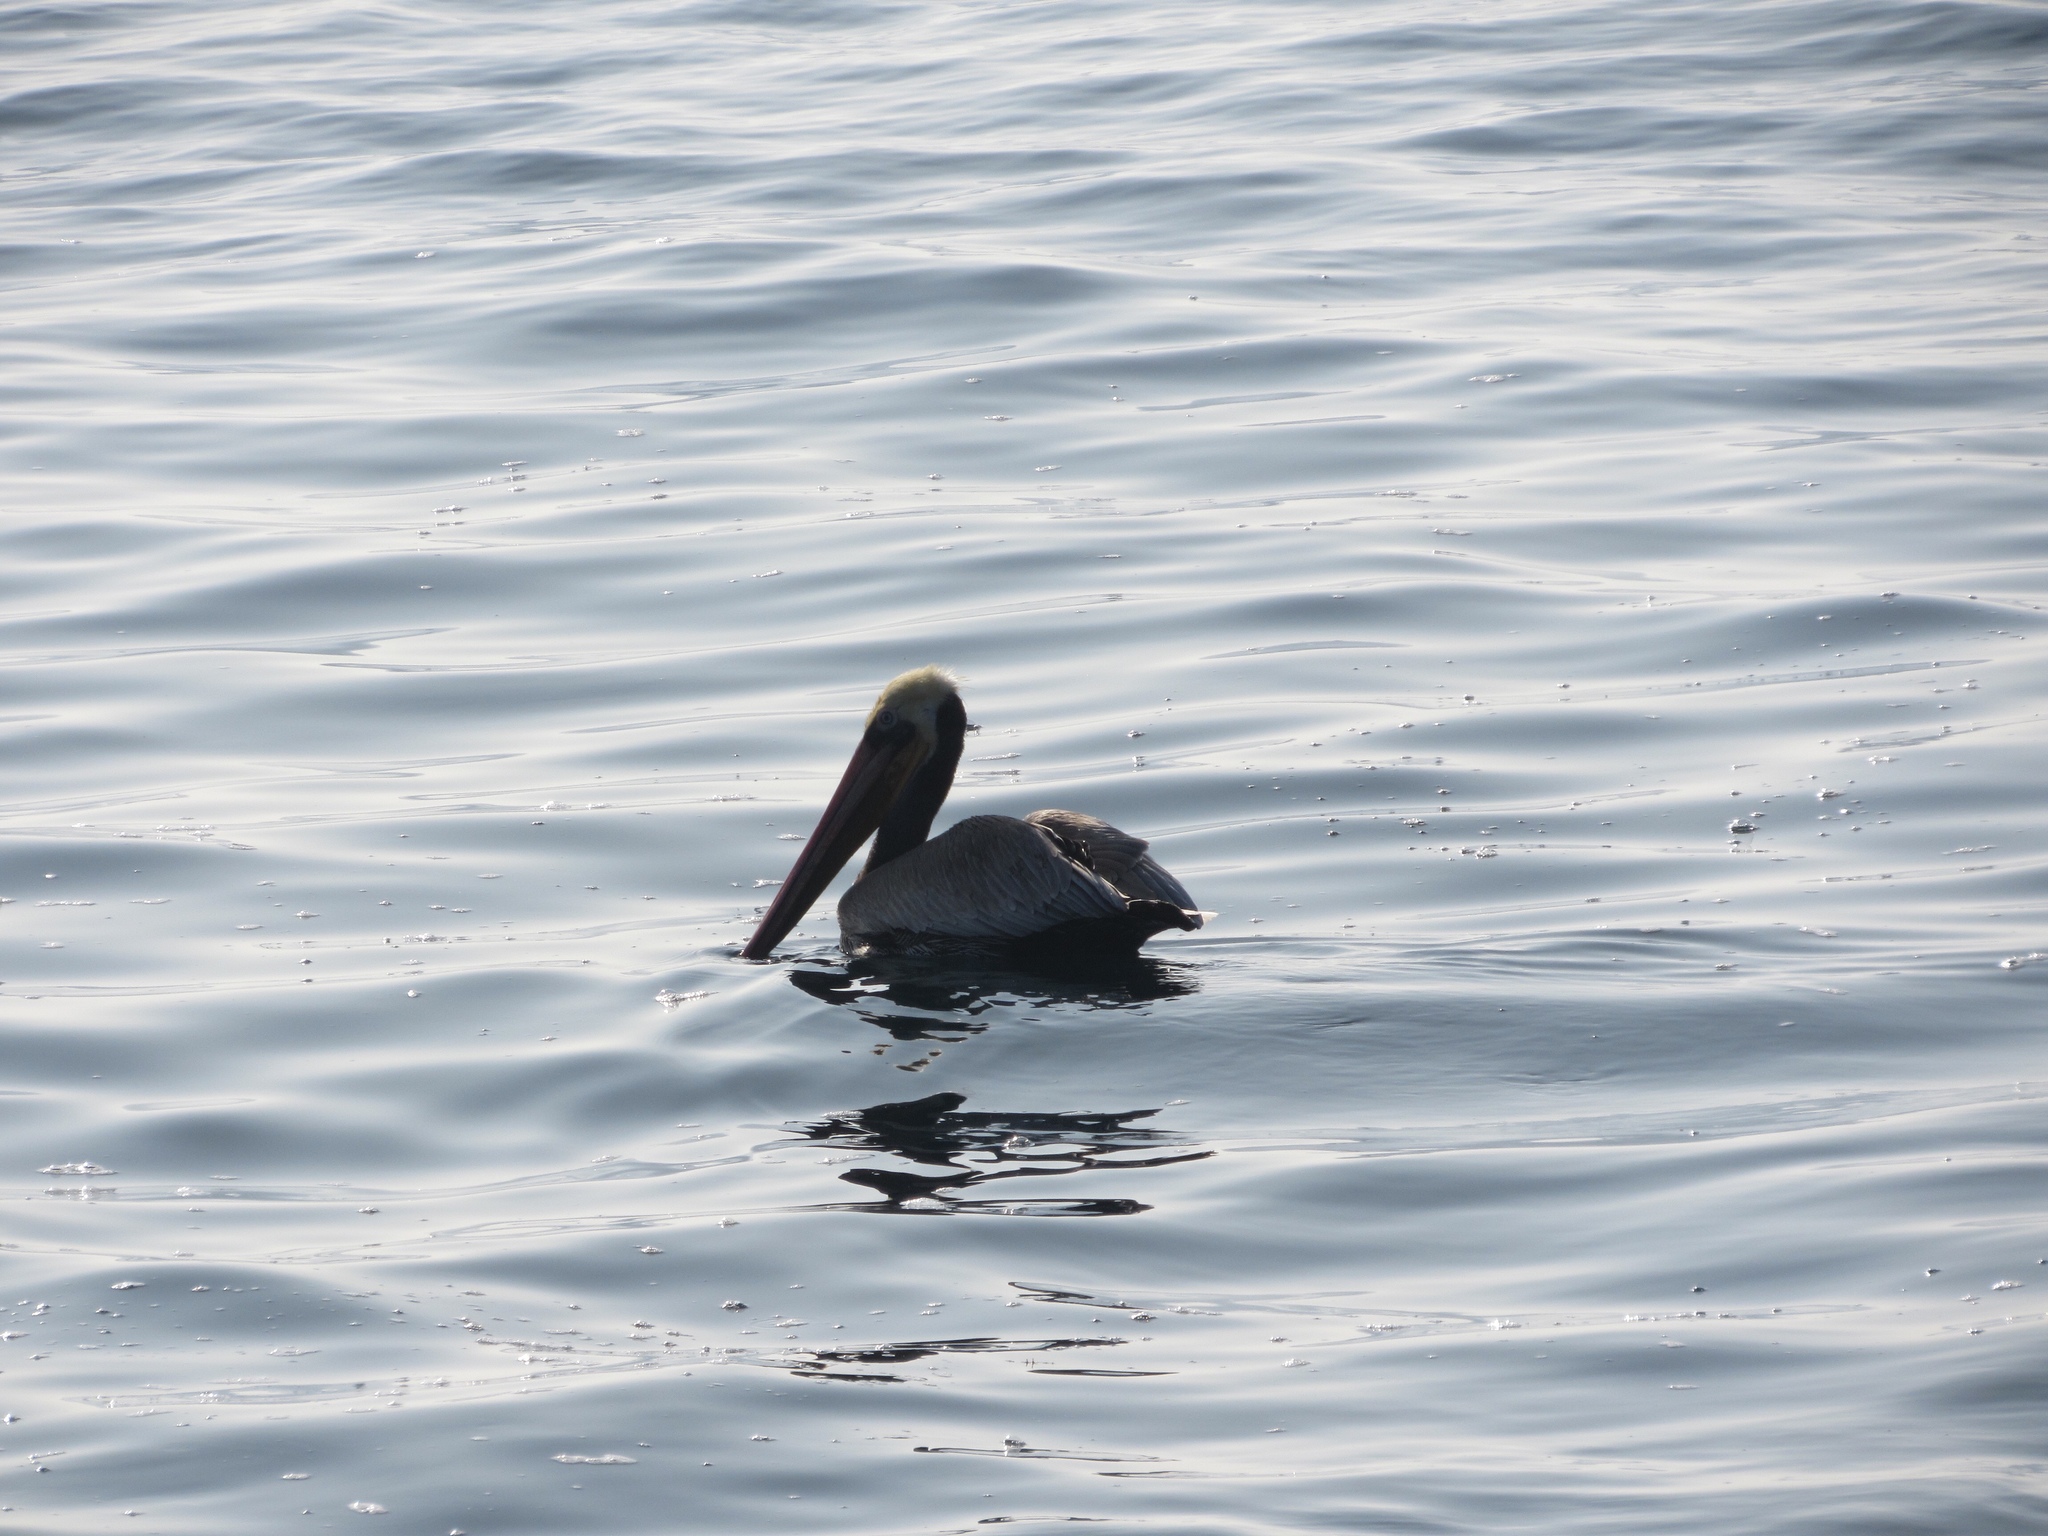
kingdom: Animalia
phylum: Chordata
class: Aves
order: Pelecaniformes
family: Pelecanidae
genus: Pelecanus
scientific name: Pelecanus occidentalis
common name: Brown pelican
